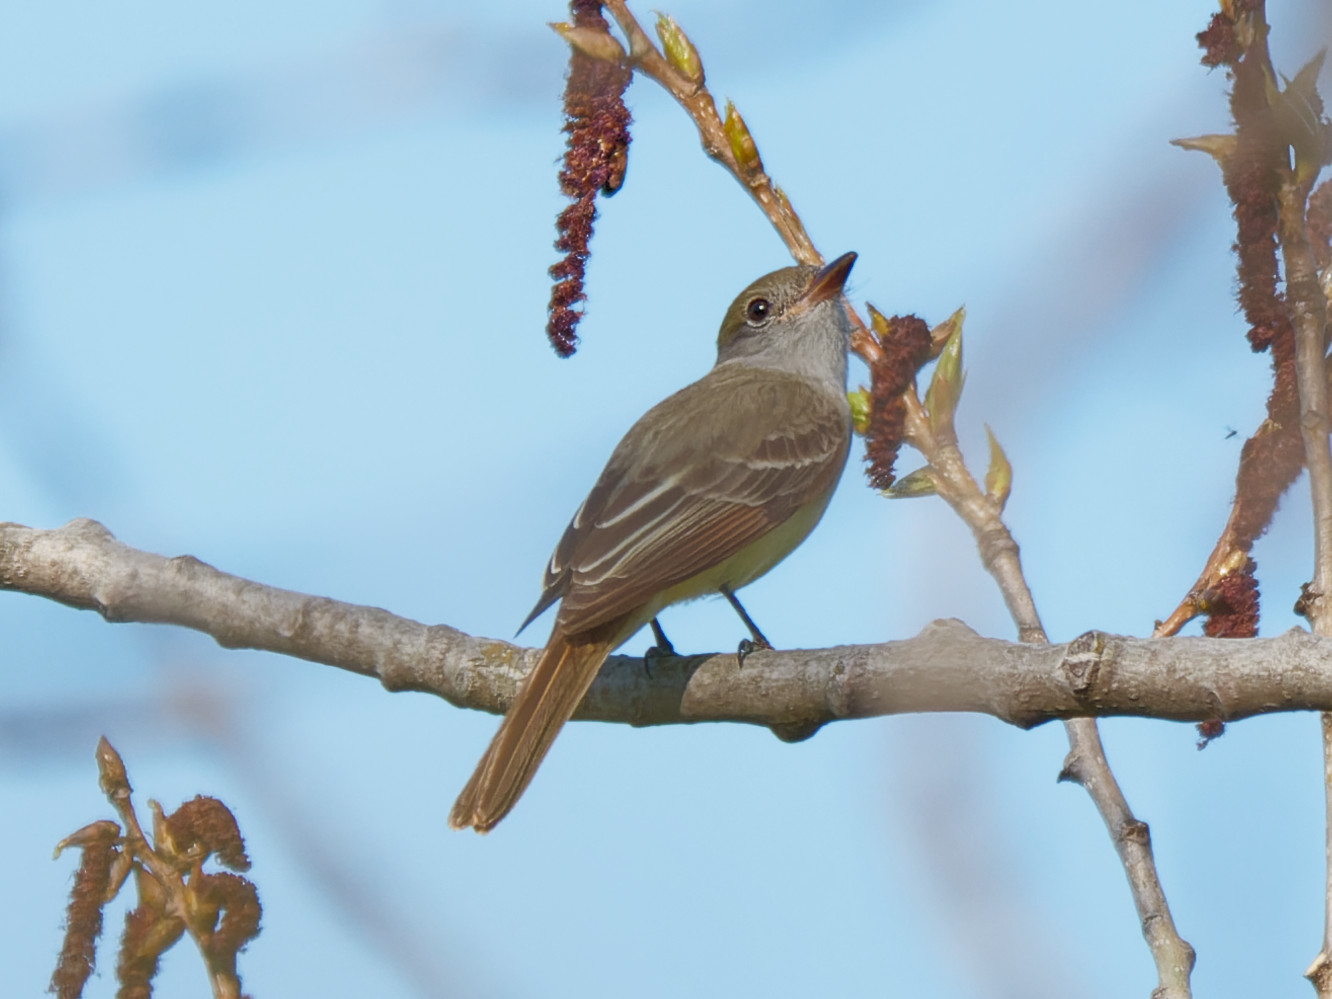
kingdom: Animalia
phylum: Chordata
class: Aves
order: Passeriformes
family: Tyrannidae
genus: Myiarchus
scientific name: Myiarchus crinitus
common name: Great crested flycatcher
